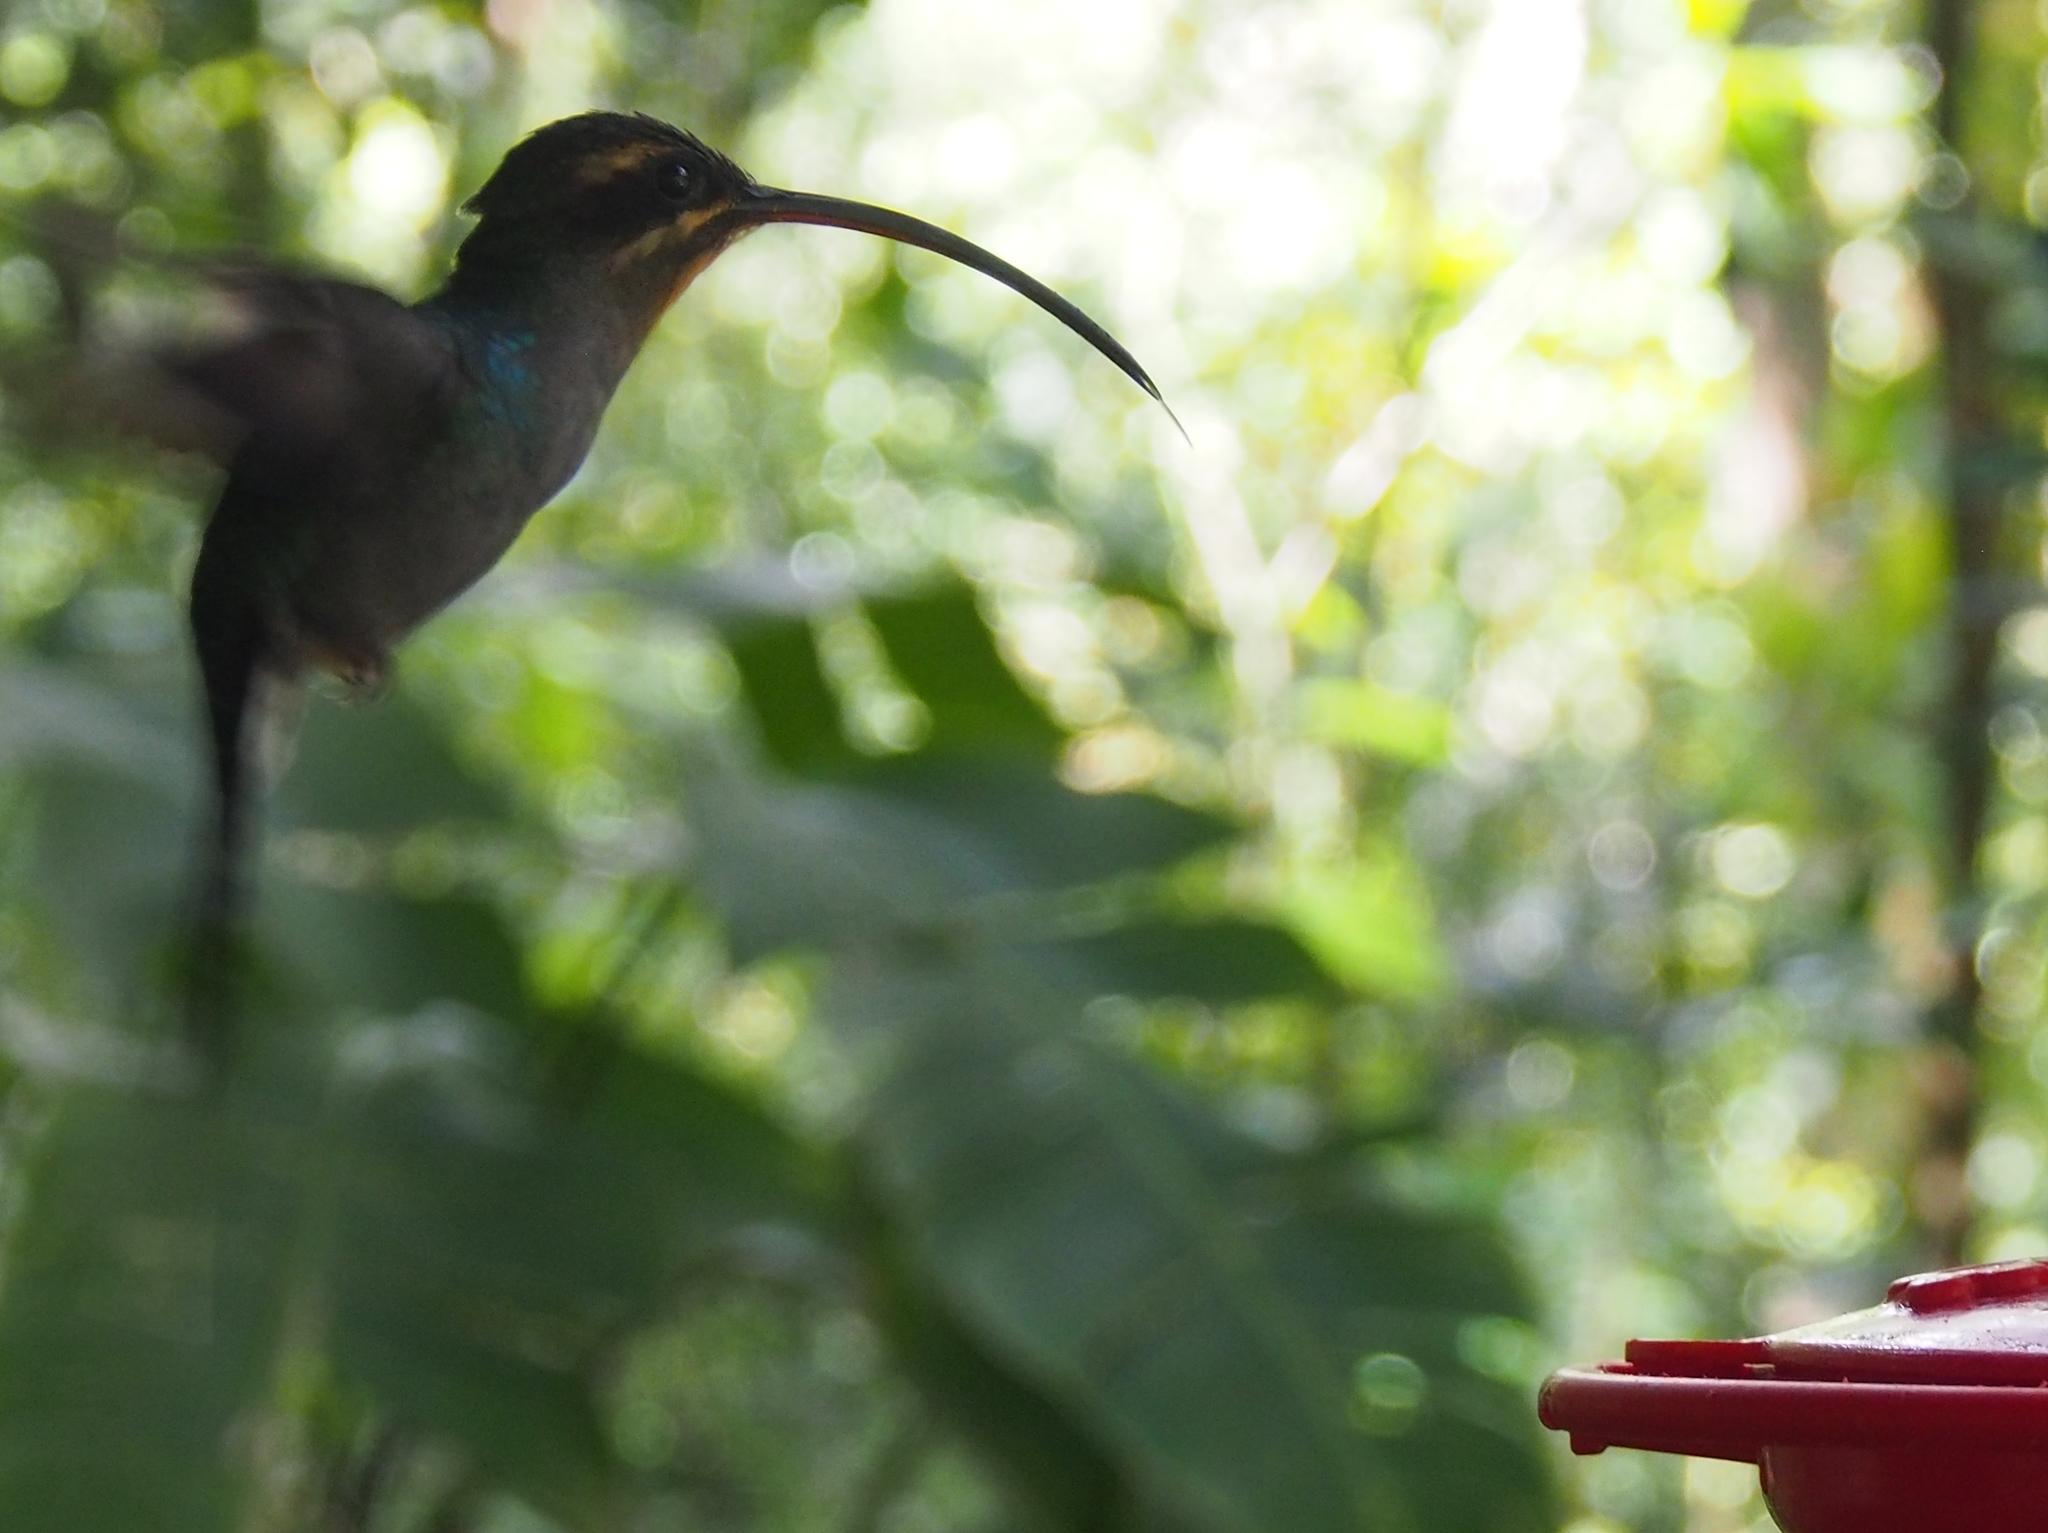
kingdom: Animalia
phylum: Chordata
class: Aves
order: Apodiformes
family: Trochilidae
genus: Phaethornis
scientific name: Phaethornis guy
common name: Green hermit
